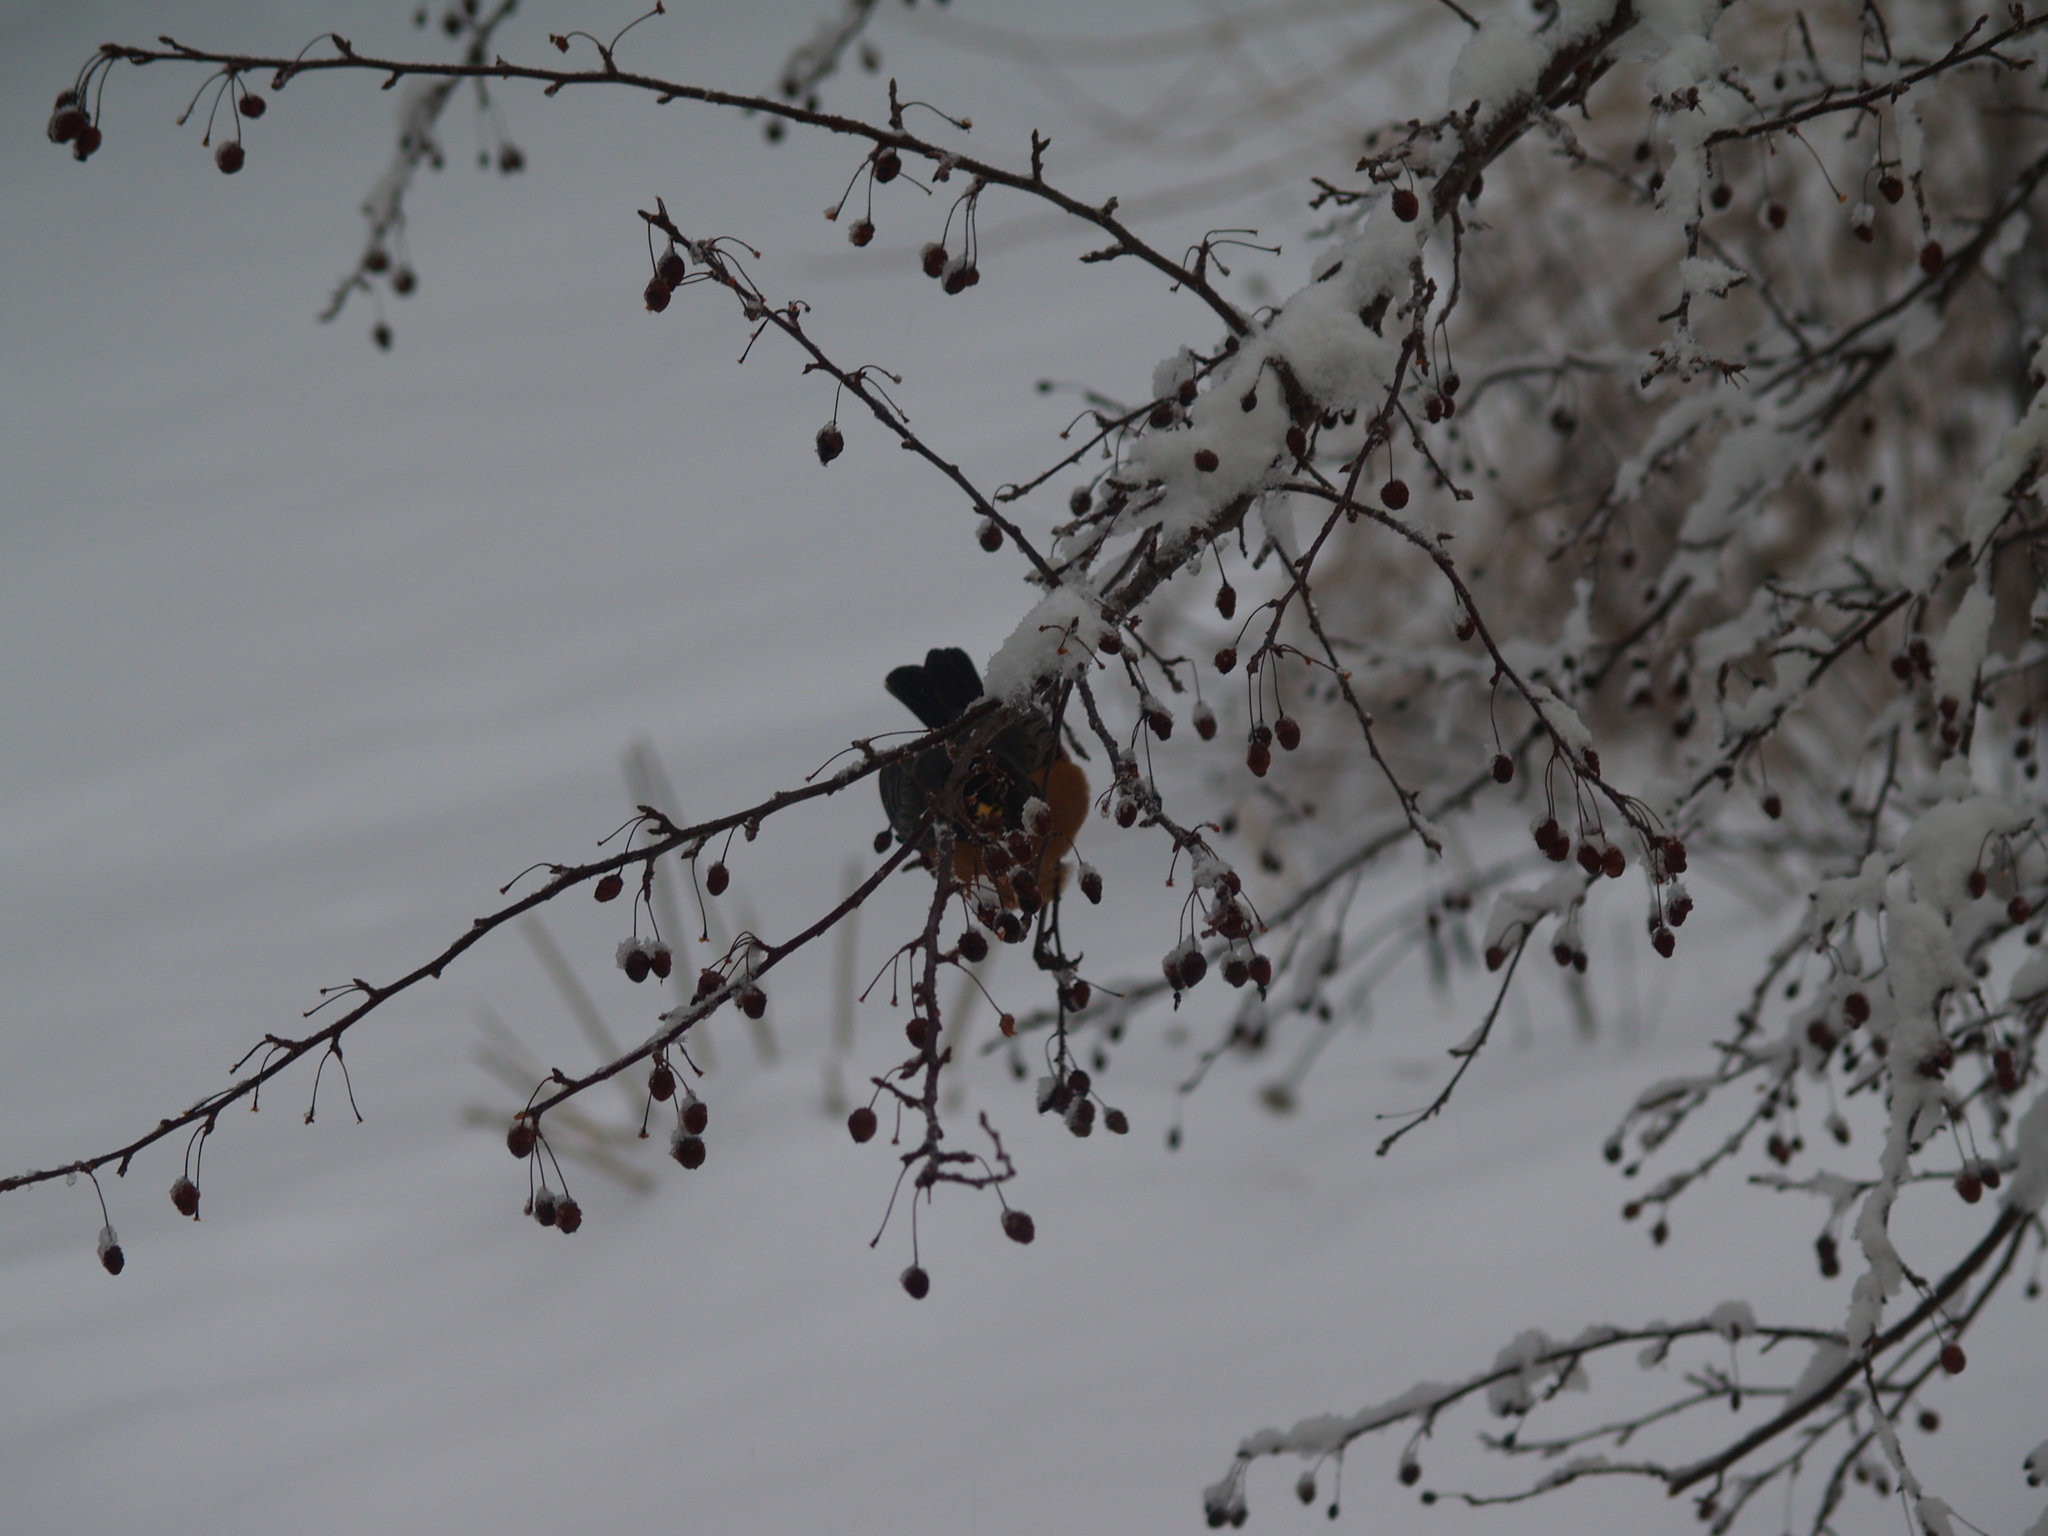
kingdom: Animalia
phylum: Chordata
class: Aves
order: Passeriformes
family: Turdidae
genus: Turdus
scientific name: Turdus migratorius
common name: American robin
